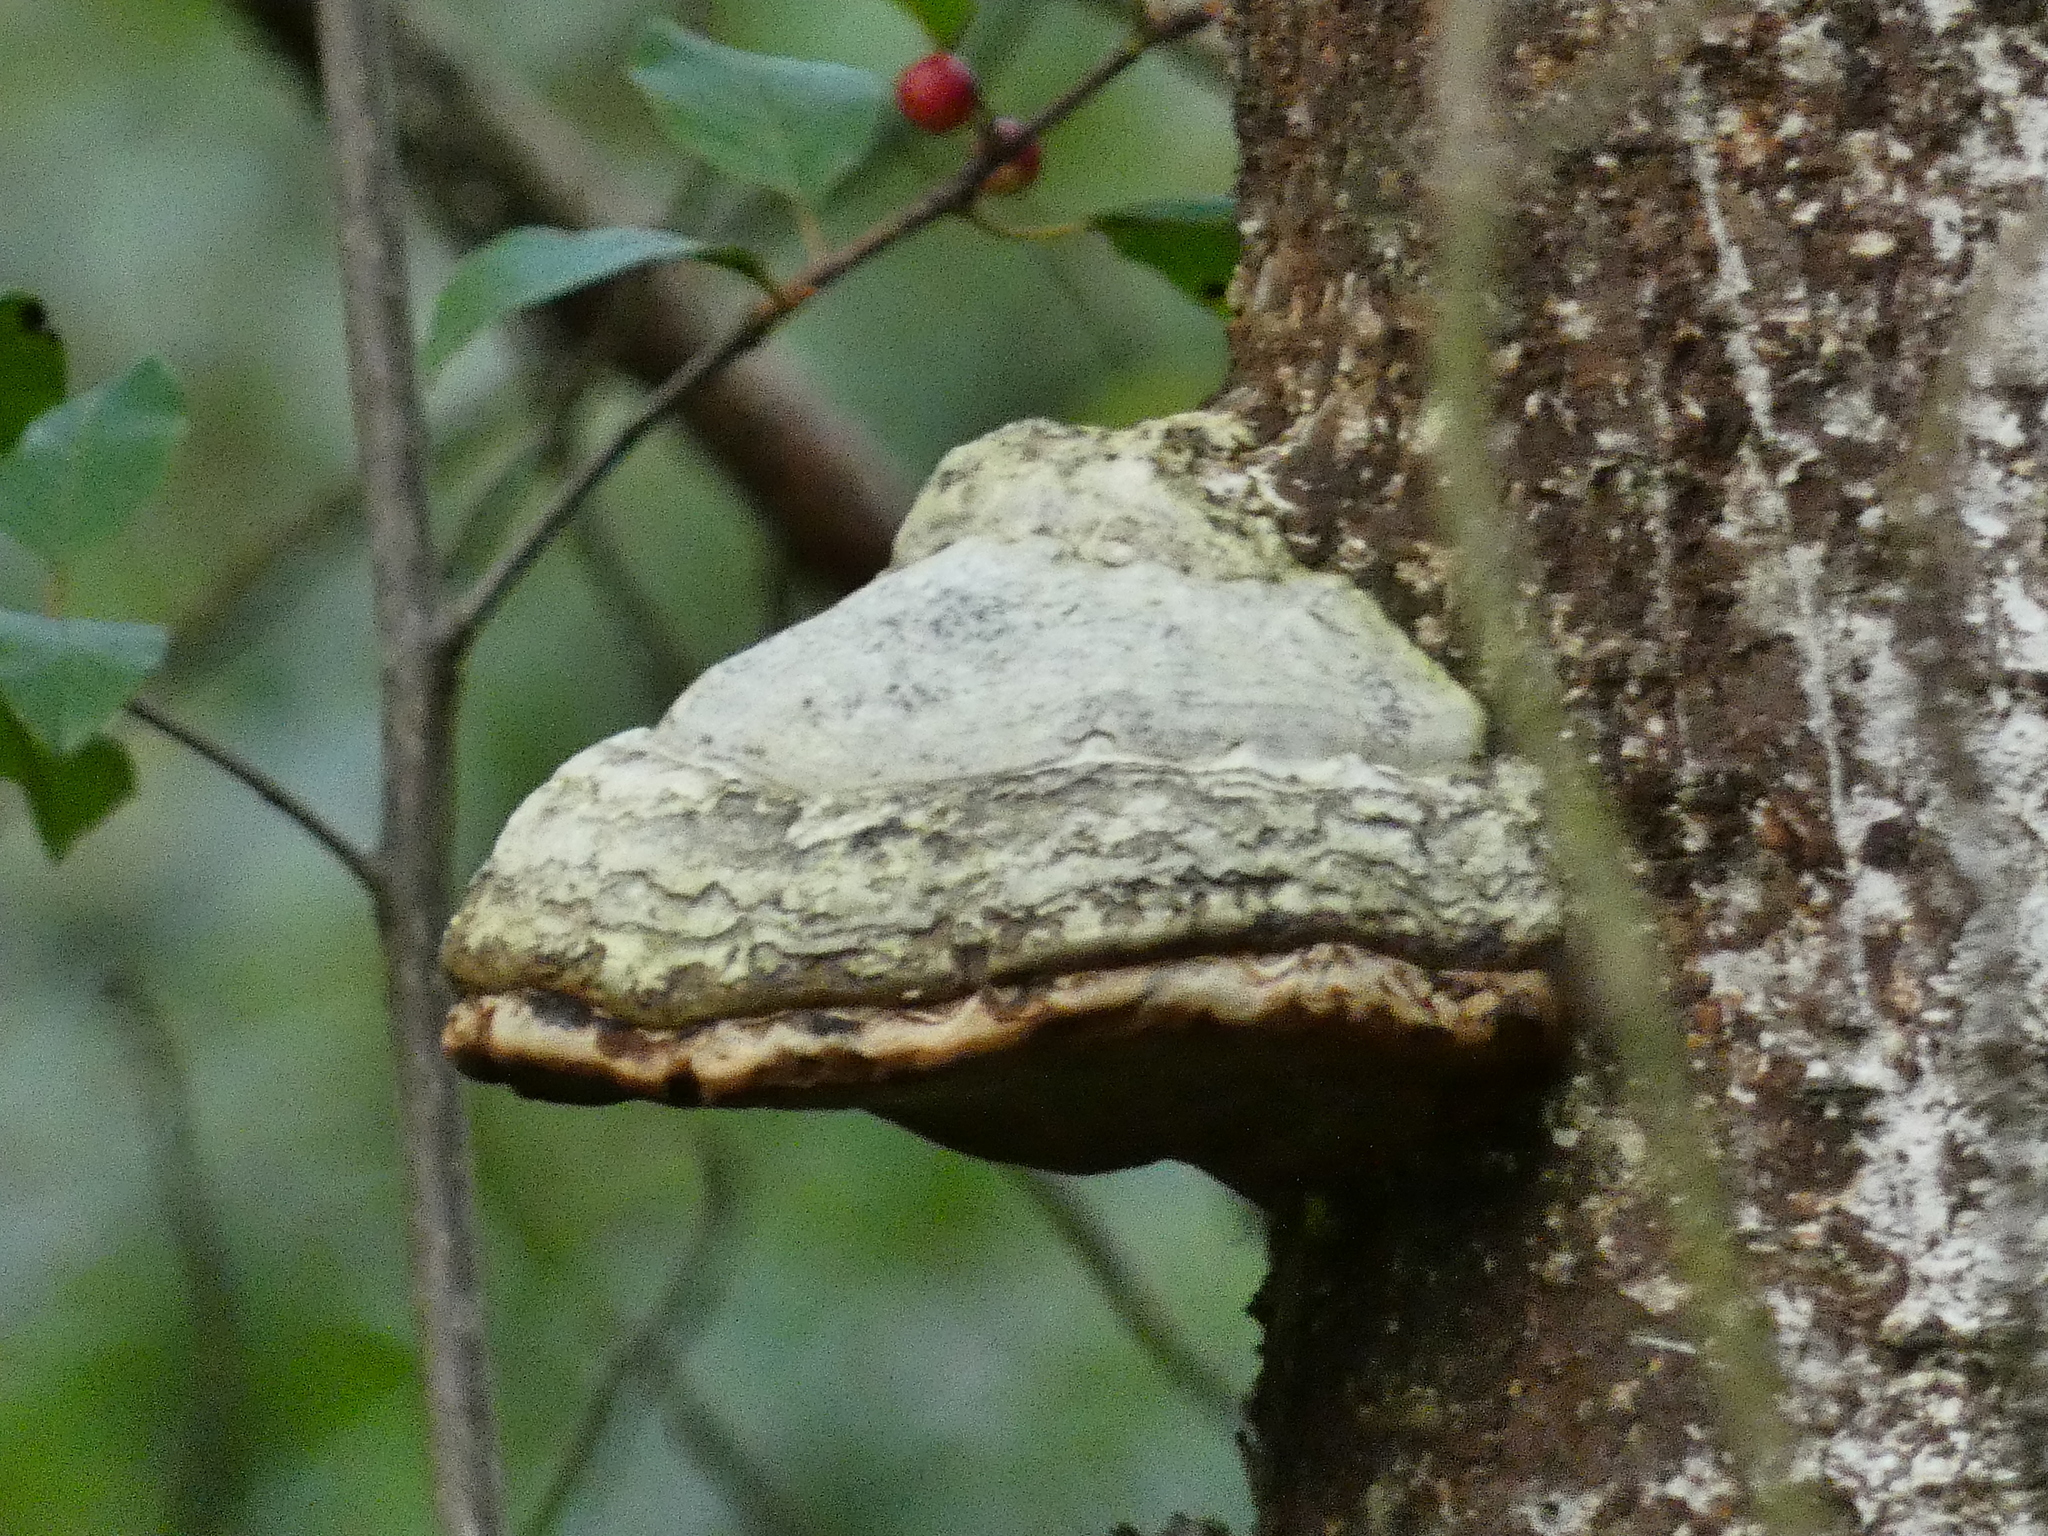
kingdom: Fungi
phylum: Basidiomycota
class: Agaricomycetes
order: Polyporales
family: Polyporaceae
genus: Fomes
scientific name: Fomes fomentarius
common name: Hoof fungus
